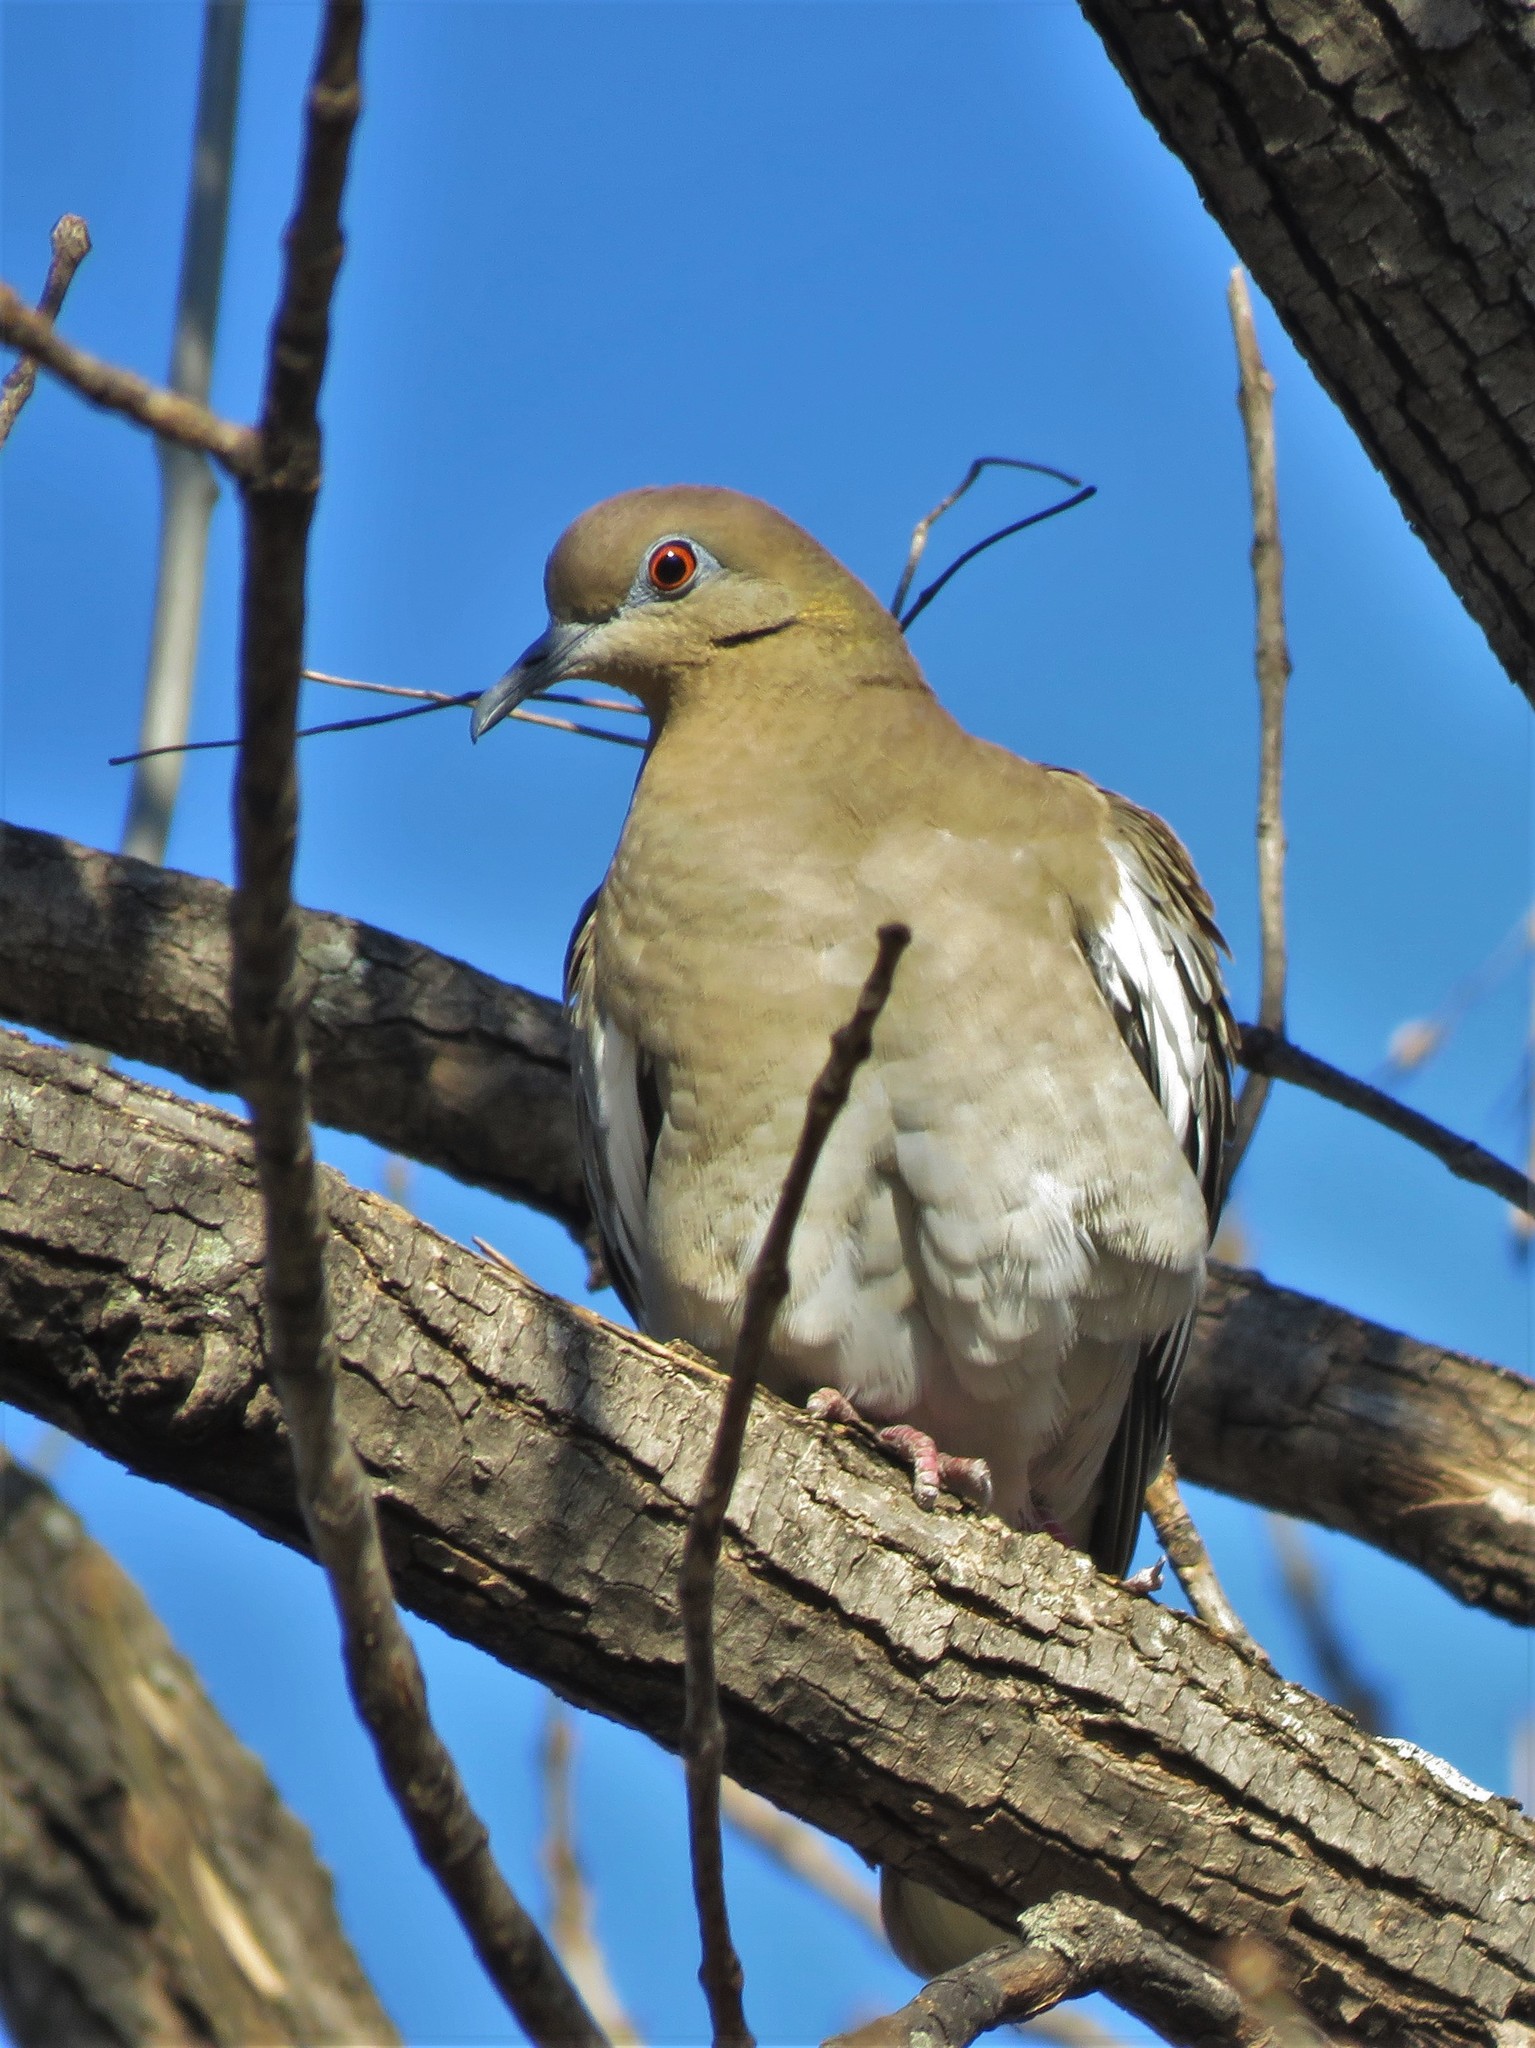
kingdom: Animalia
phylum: Chordata
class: Aves
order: Columbiformes
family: Columbidae
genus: Zenaida
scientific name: Zenaida asiatica
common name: White-winged dove
